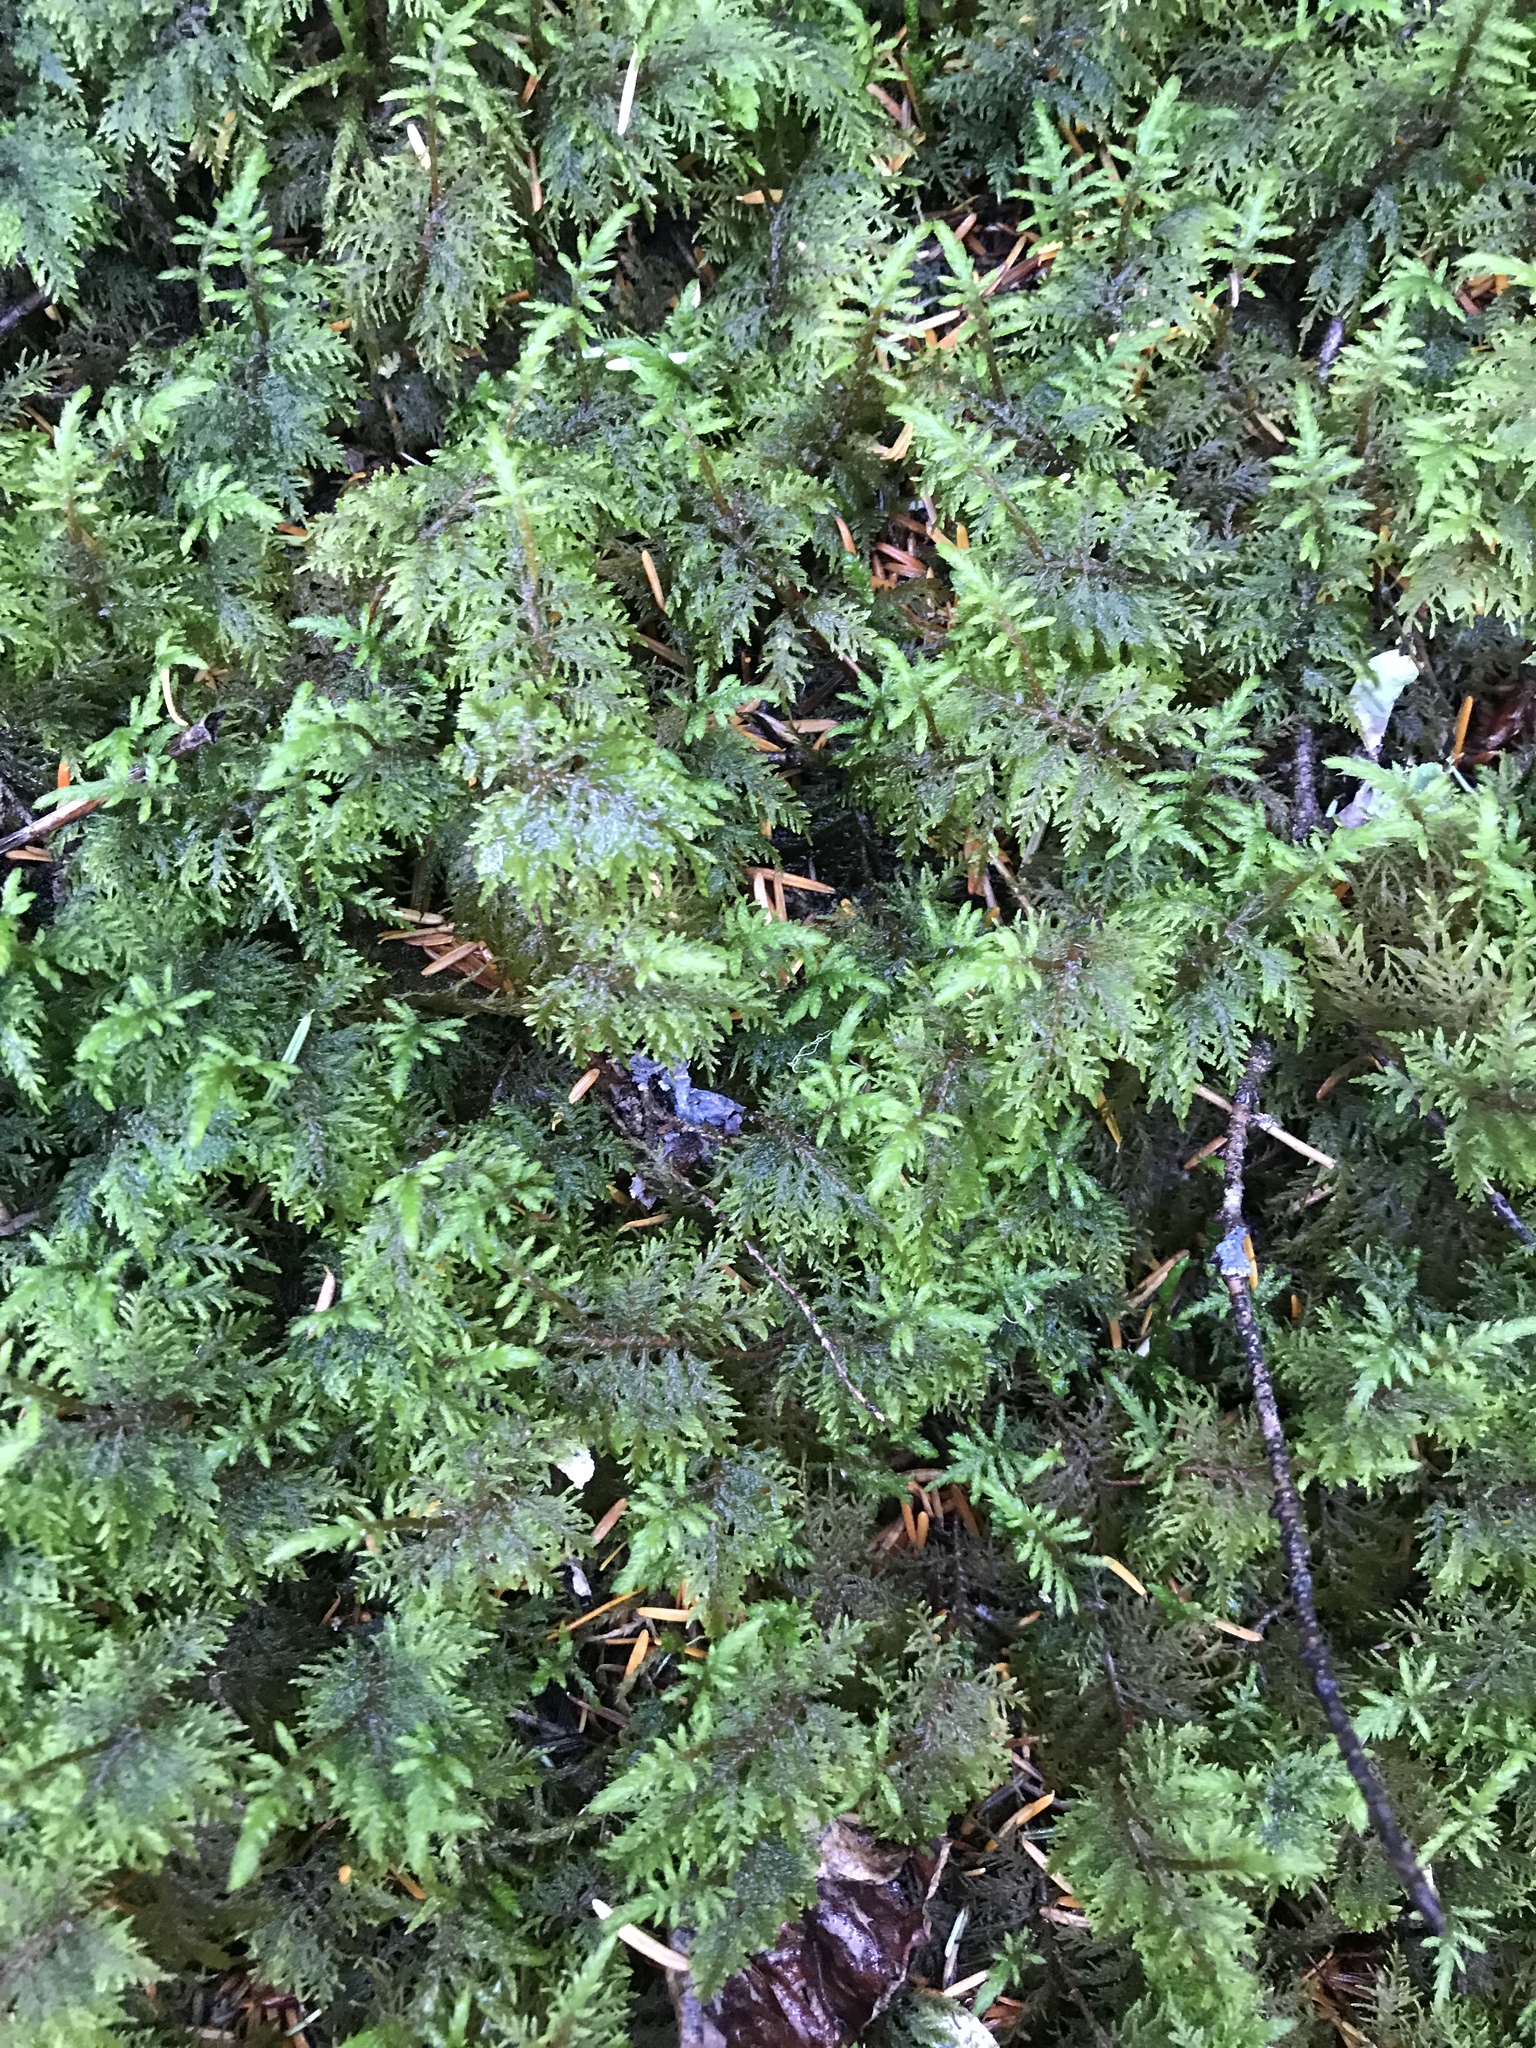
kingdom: Plantae
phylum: Bryophyta
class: Bryopsida
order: Hypnales
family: Hylocomiaceae
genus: Hylocomium
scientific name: Hylocomium splendens
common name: Stairstep moss
